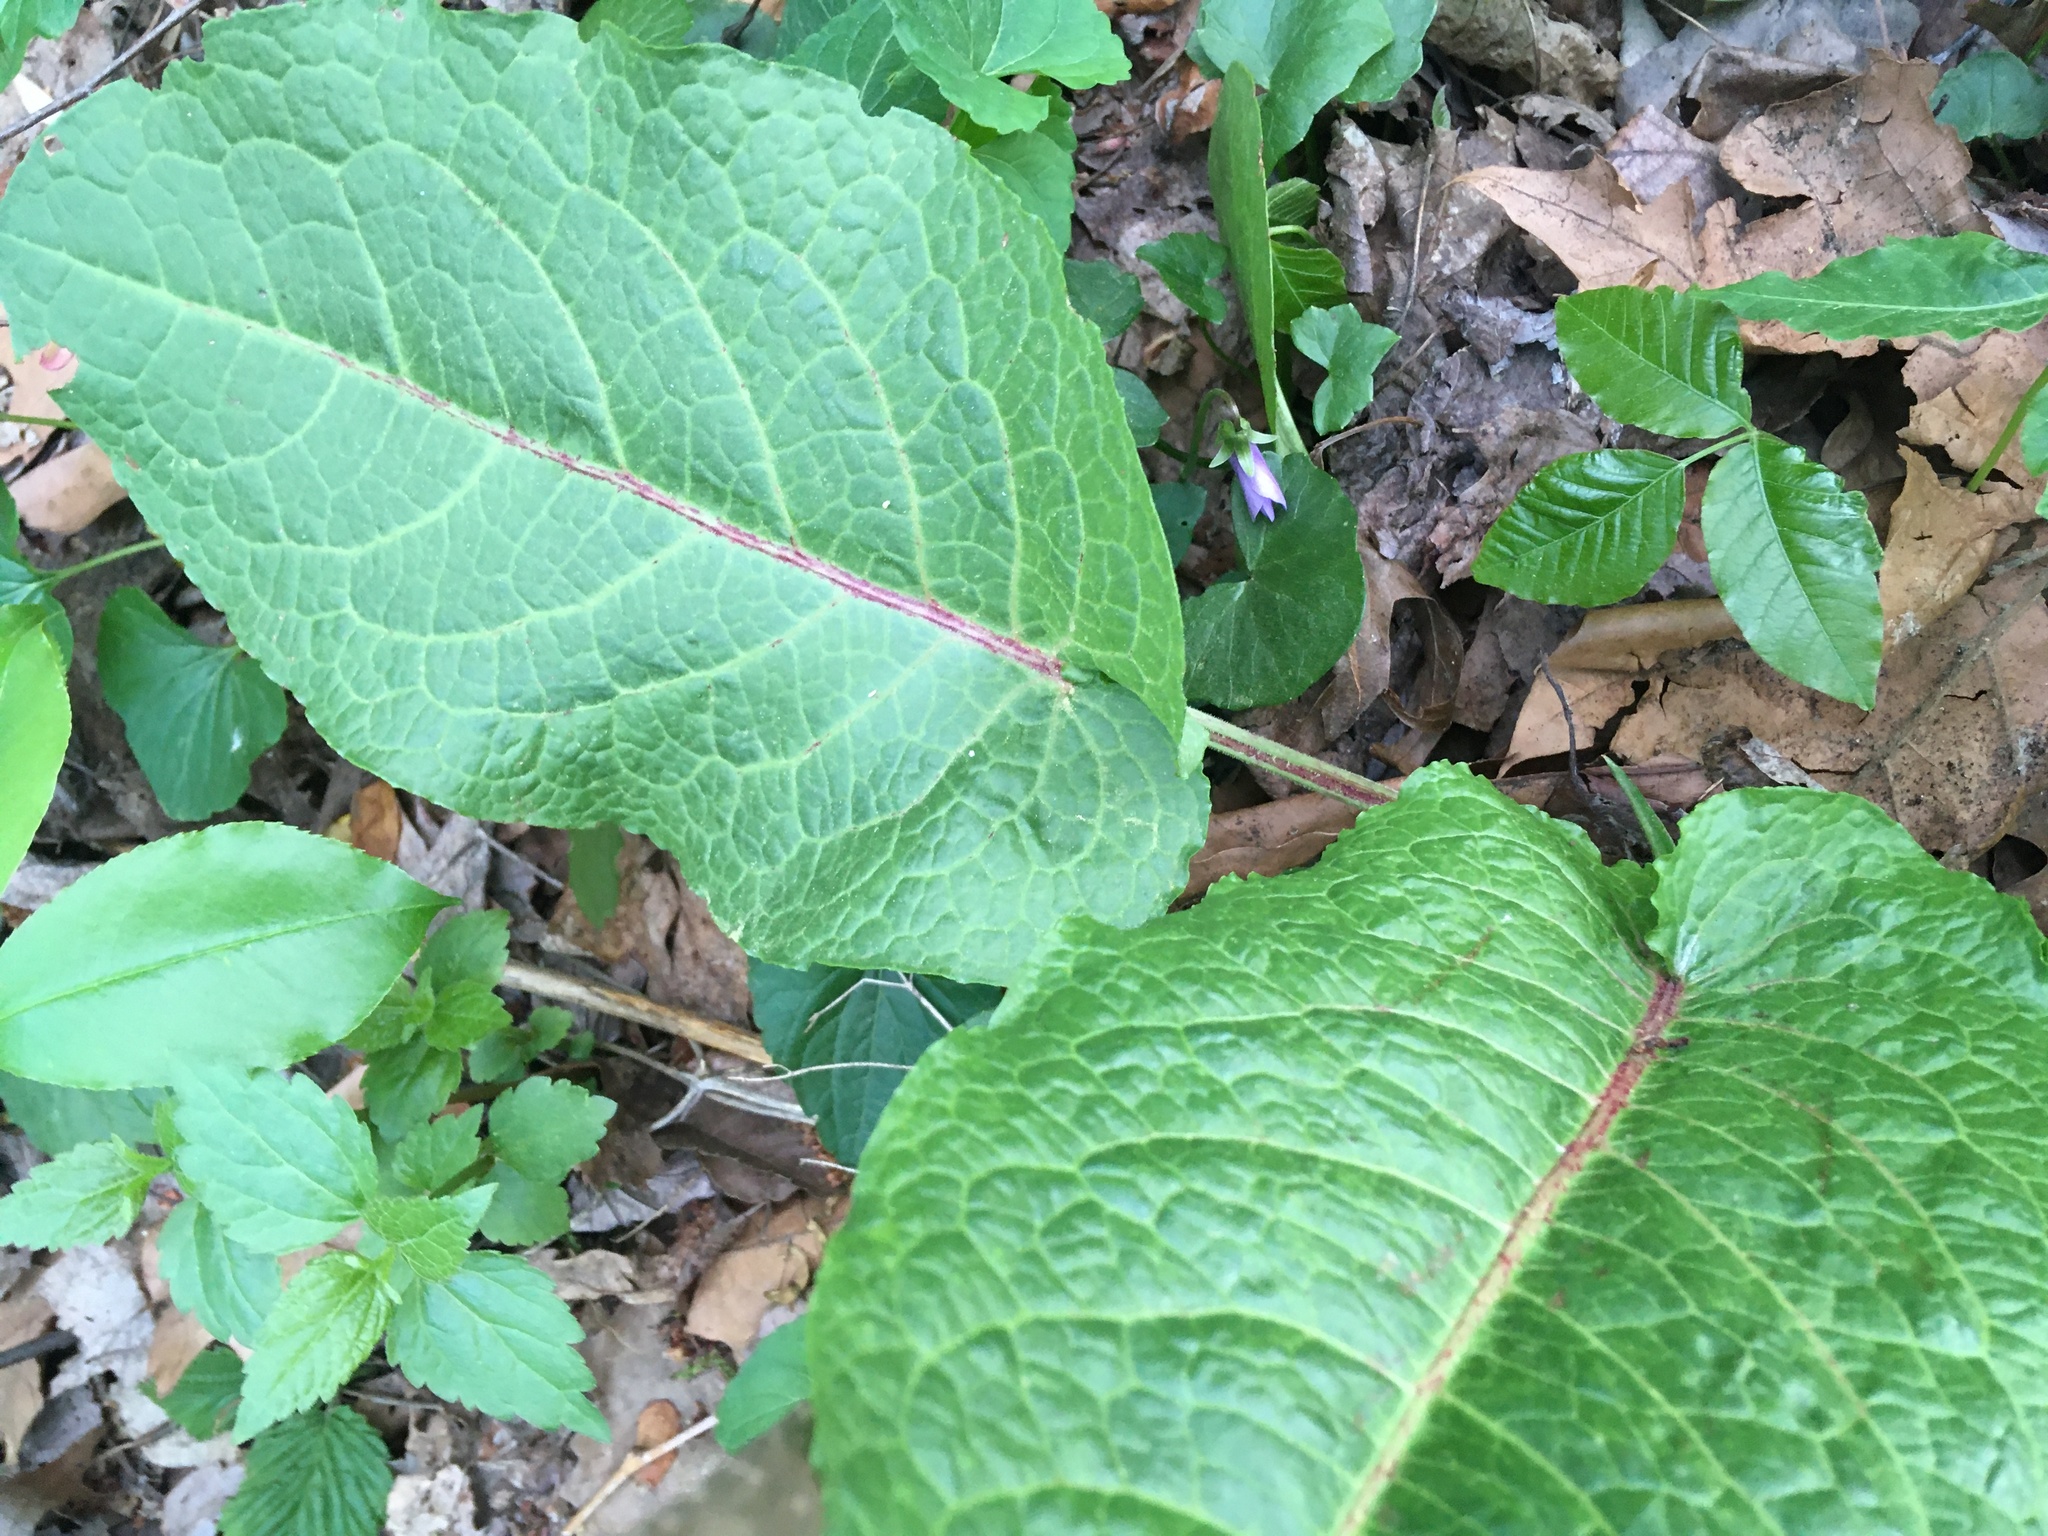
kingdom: Plantae
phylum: Tracheophyta
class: Magnoliopsida
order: Caryophyllales
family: Polygonaceae
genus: Rumex
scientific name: Rumex obtusifolius
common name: Bitter dock
